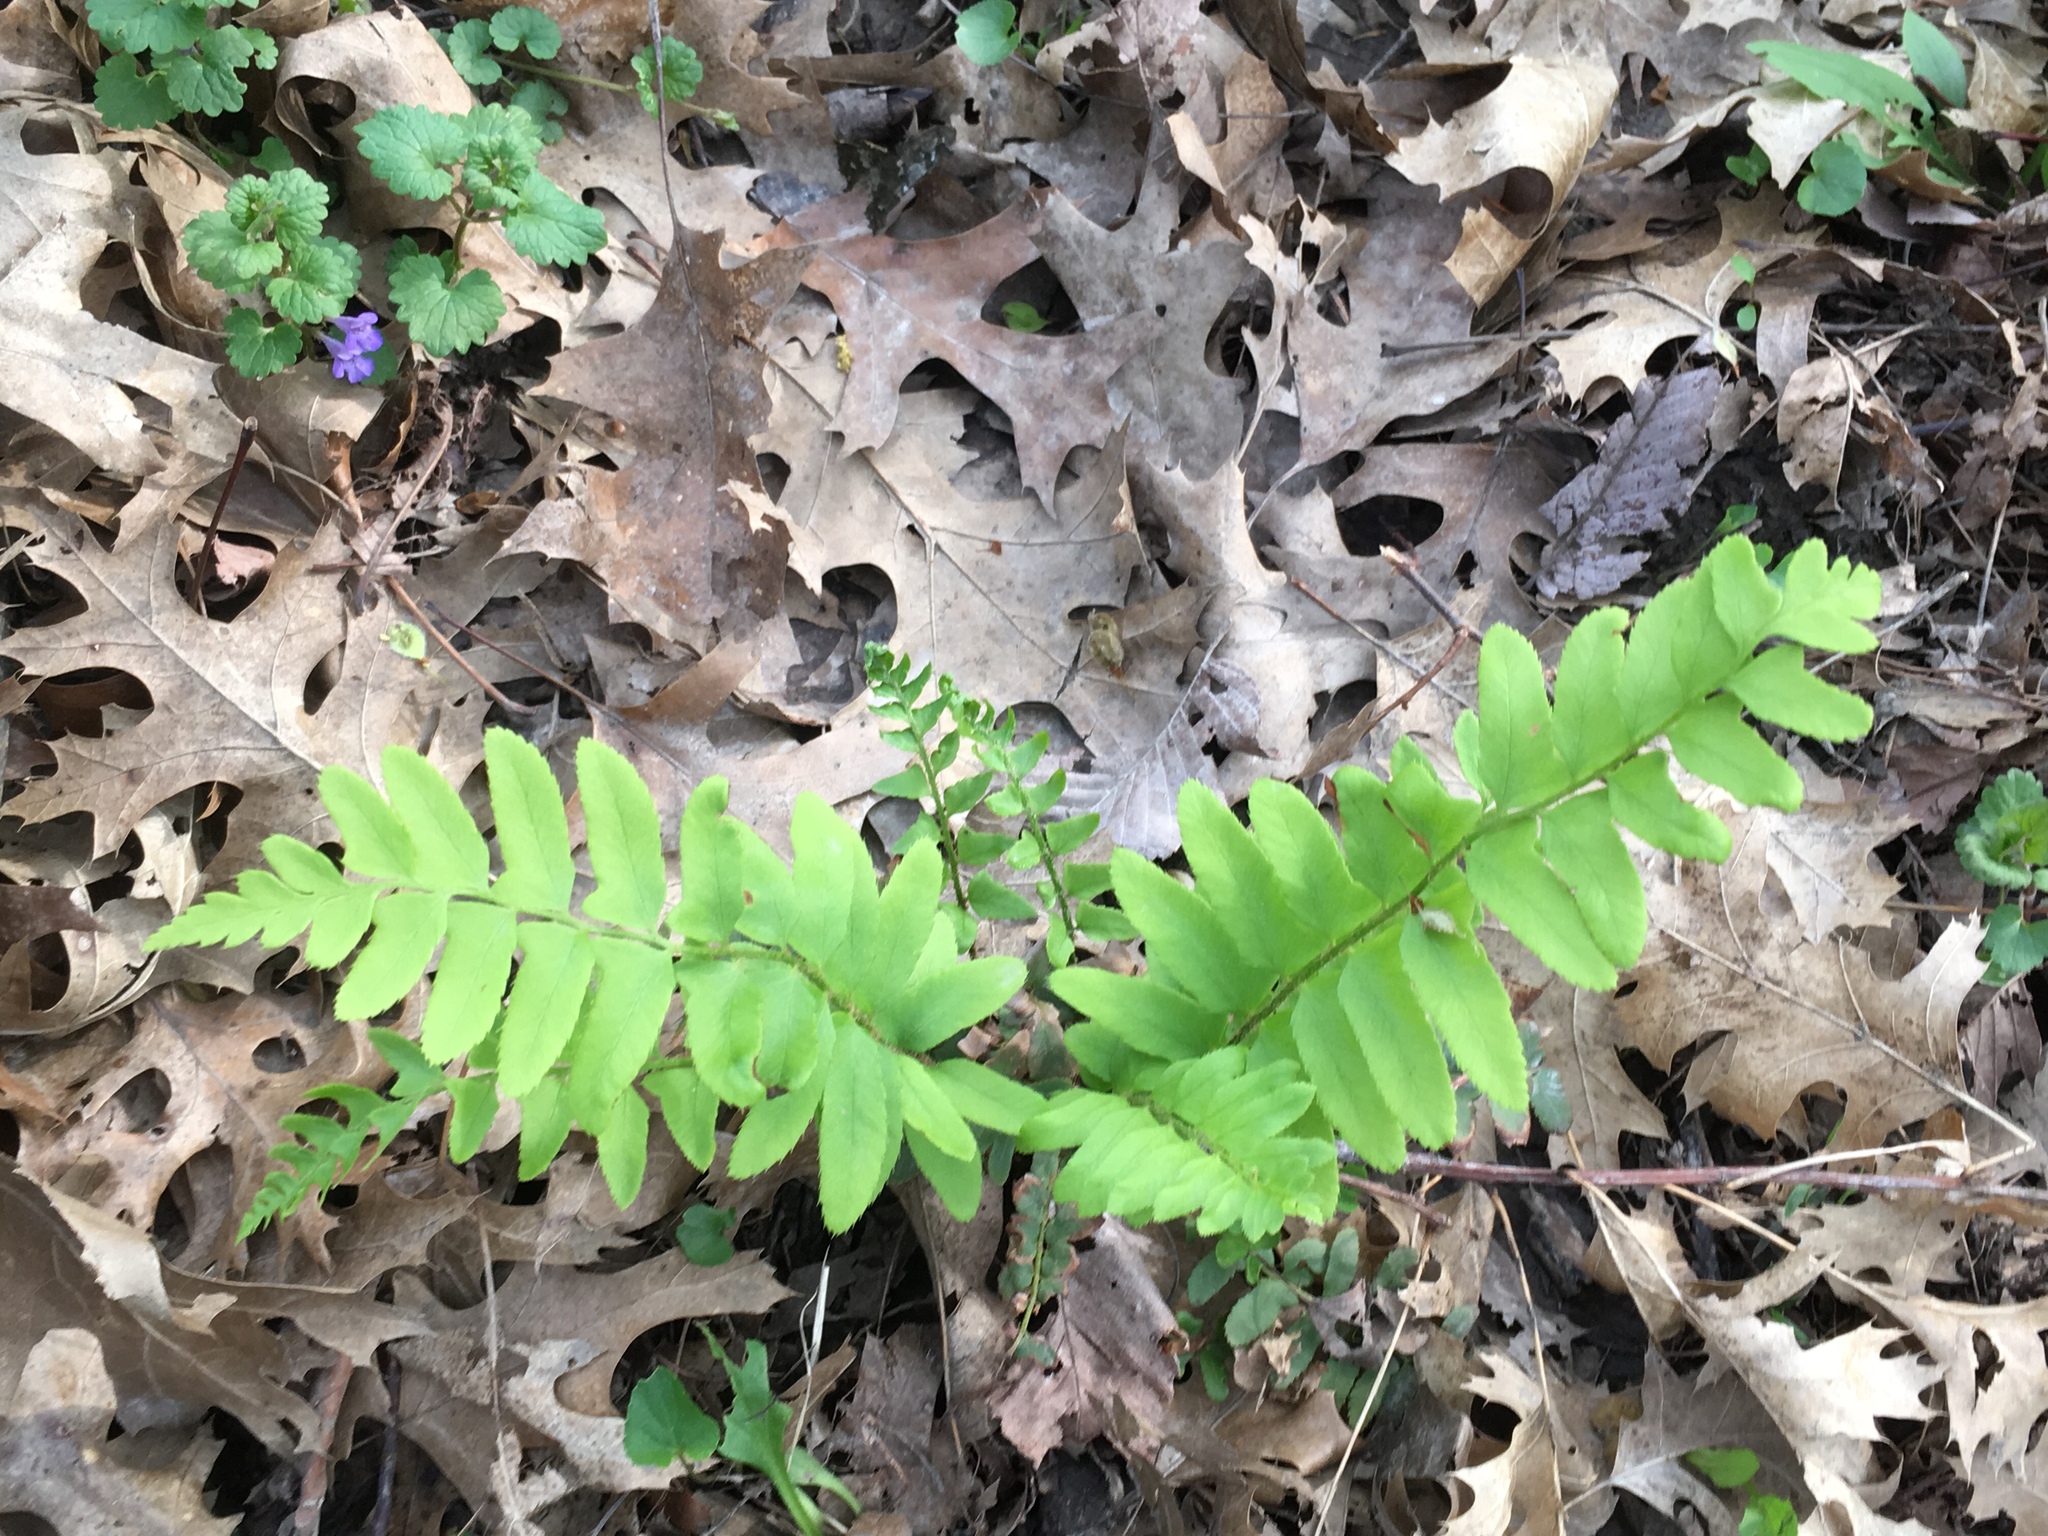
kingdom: Plantae
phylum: Tracheophyta
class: Polypodiopsida
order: Polypodiales
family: Dryopteridaceae
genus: Polystichum
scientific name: Polystichum acrostichoides
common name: Christmas fern
